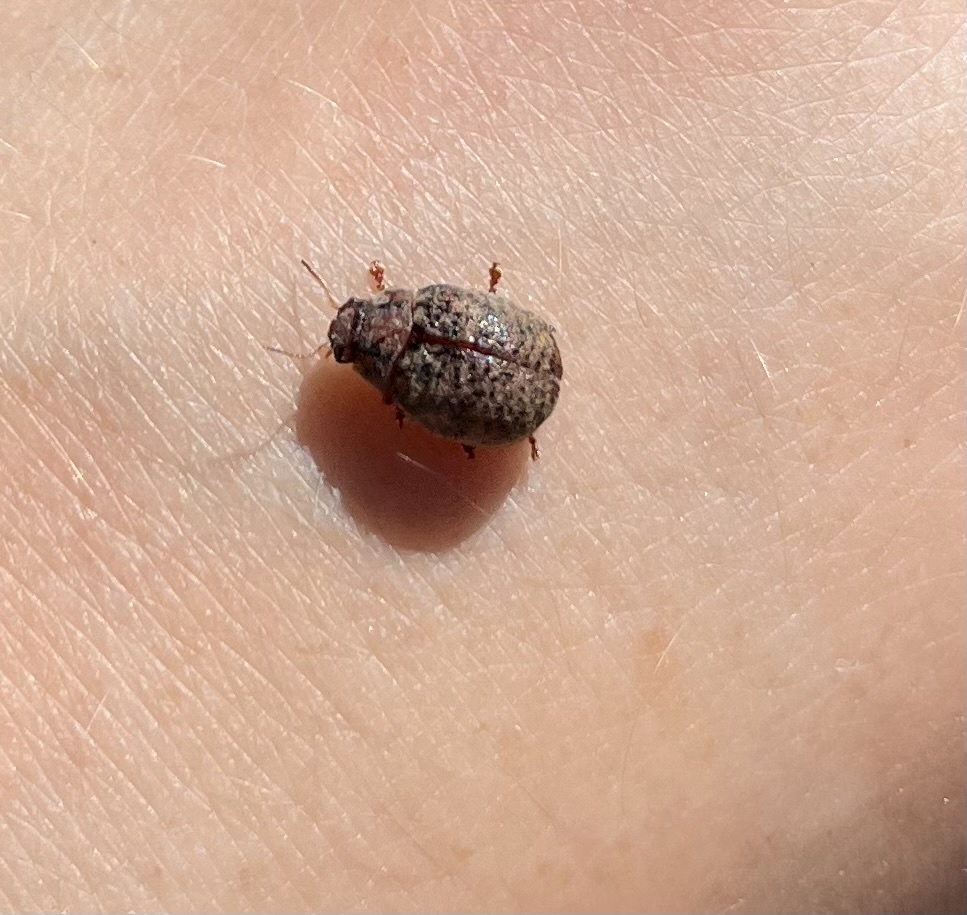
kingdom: Animalia
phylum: Arthropoda
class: Insecta
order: Coleoptera
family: Chrysomelidae
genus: Trachymela
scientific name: Trachymela sloanei
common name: Australian tortoise beetle
